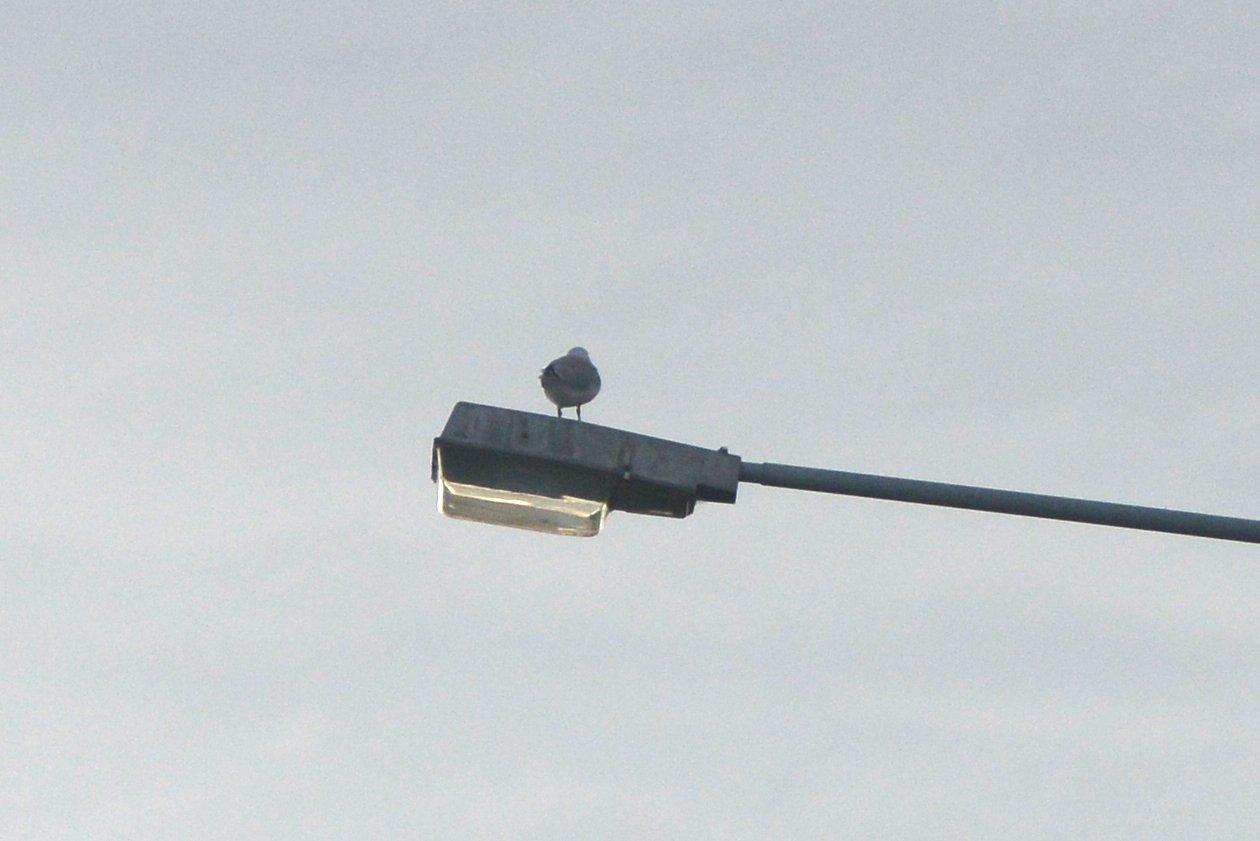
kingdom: Animalia
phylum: Chordata
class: Aves
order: Charadriiformes
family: Laridae
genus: Chroicocephalus
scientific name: Chroicocephalus novaehollandiae
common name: Silver gull
